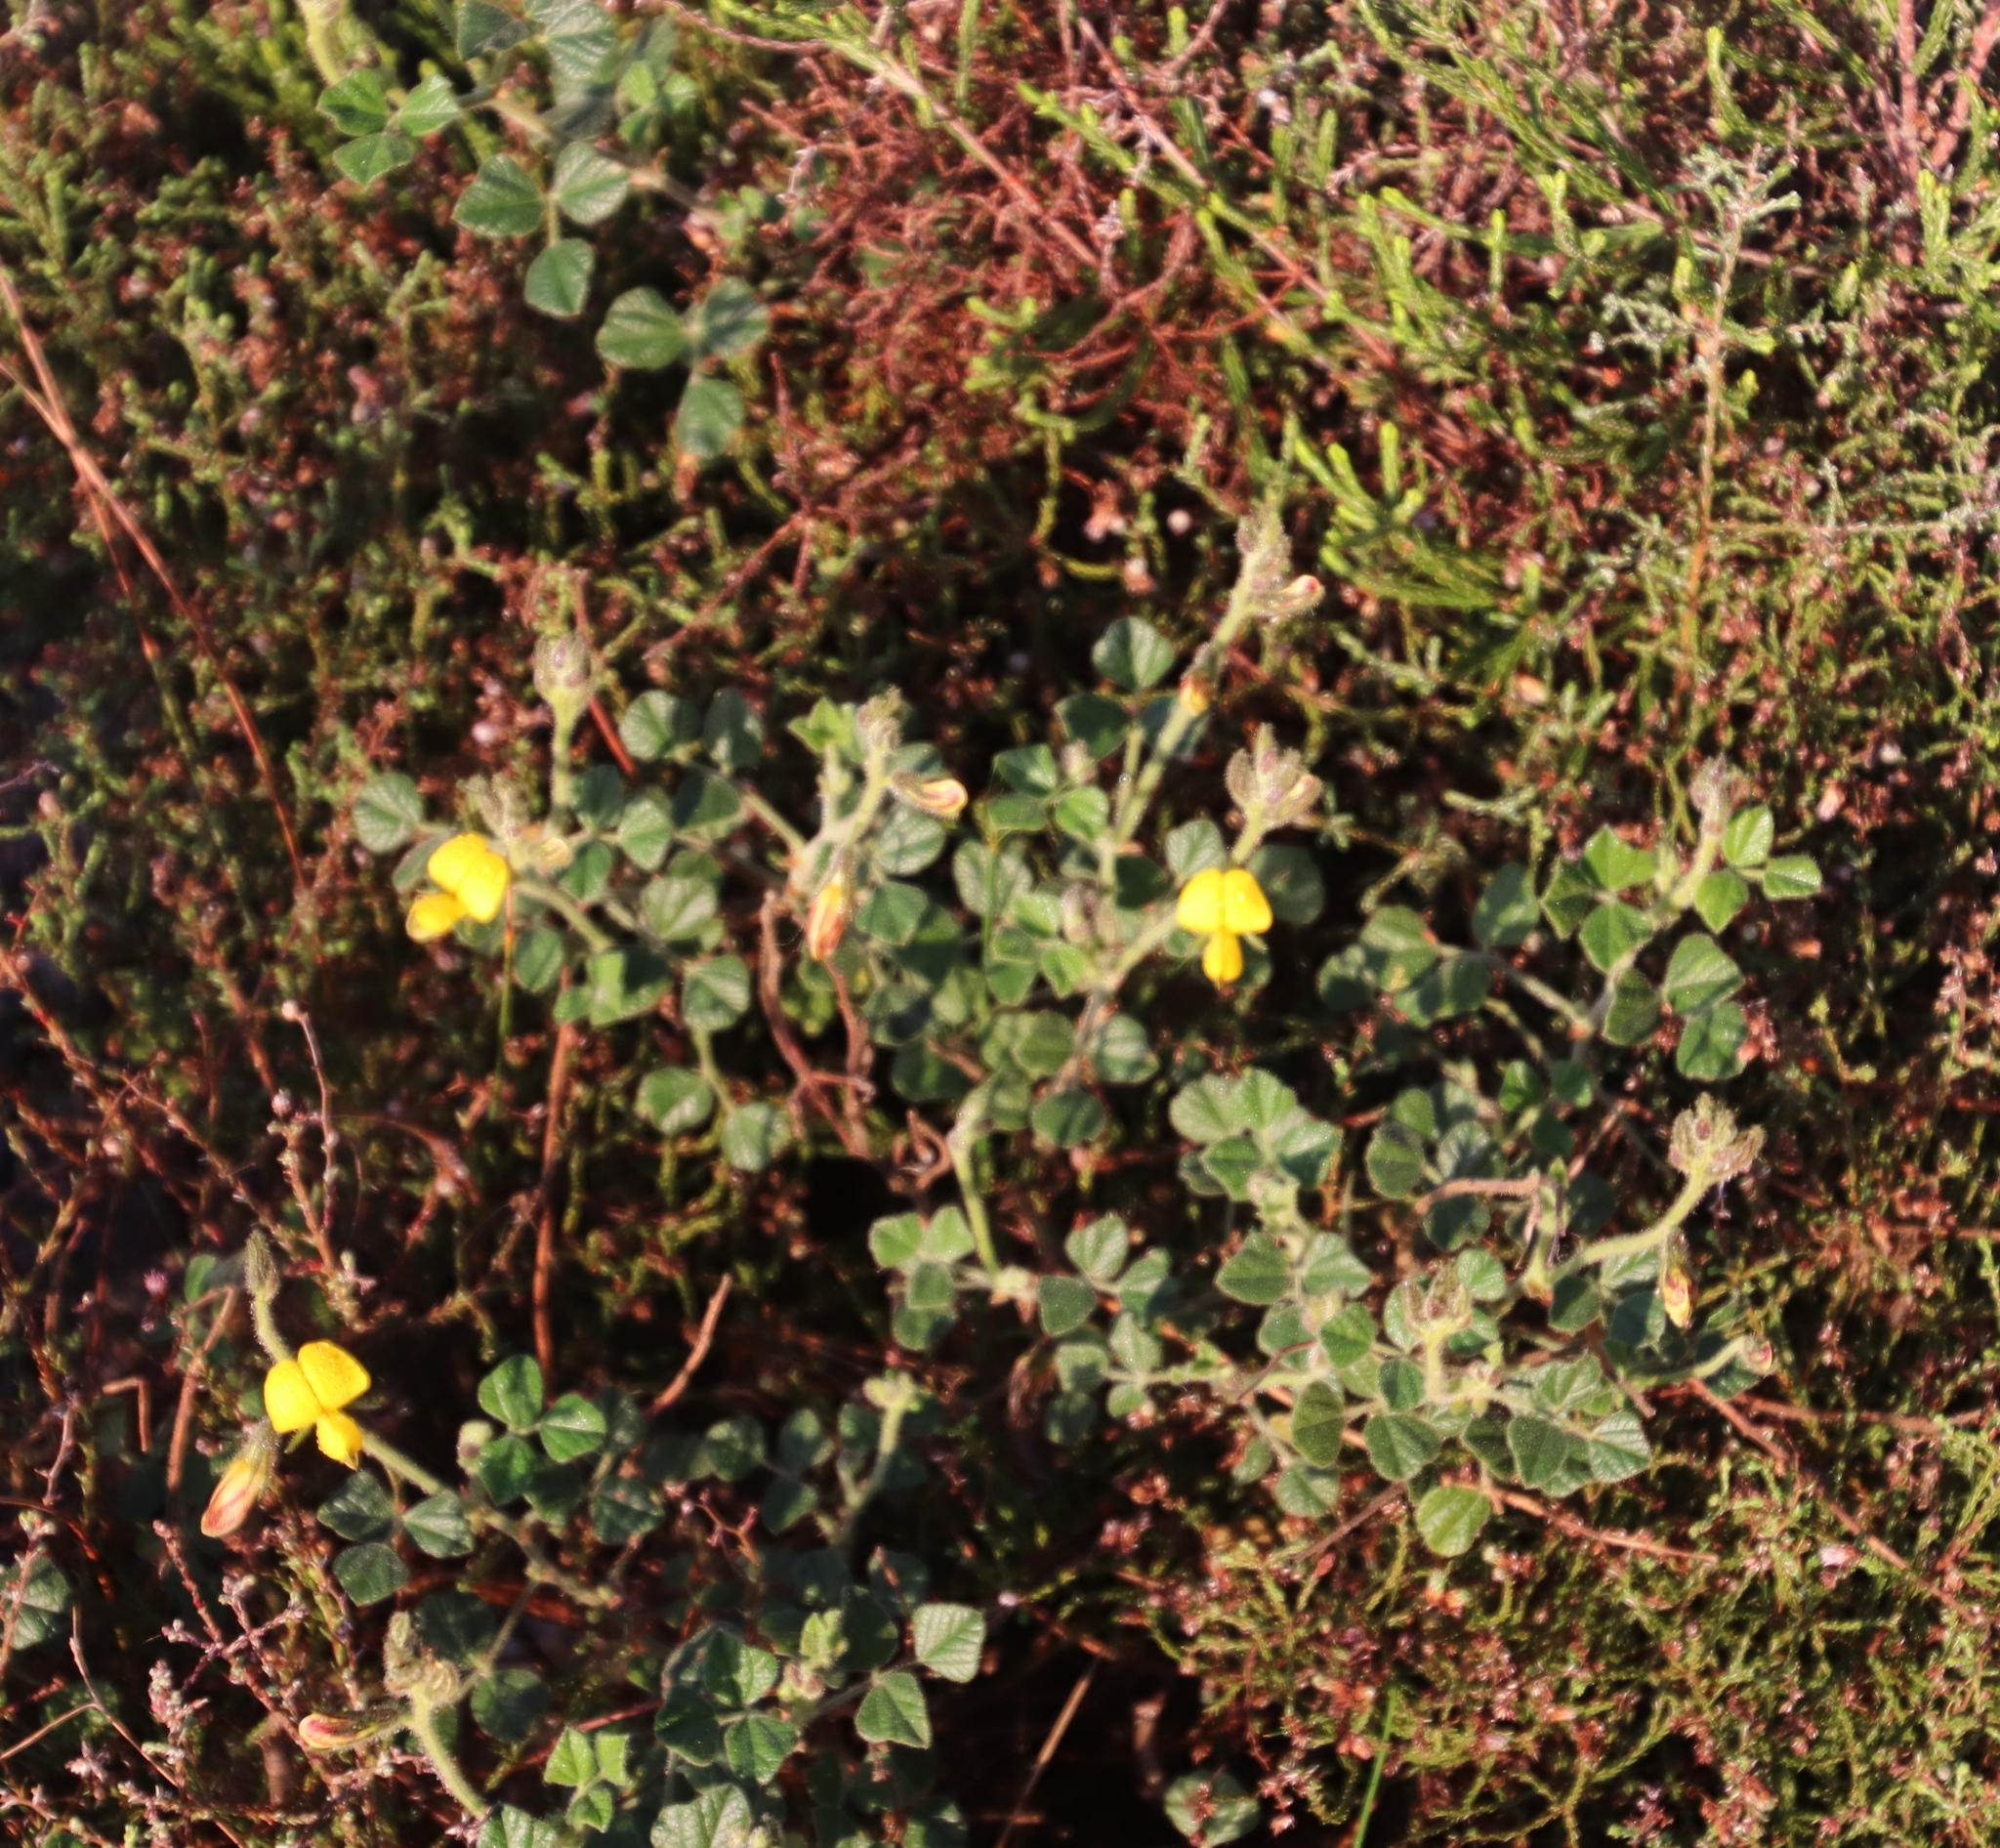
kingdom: Plantae
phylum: Tracheophyta
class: Magnoliopsida
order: Fabales
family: Fabaceae
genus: Bolusafra
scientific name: Bolusafra bituminosa
